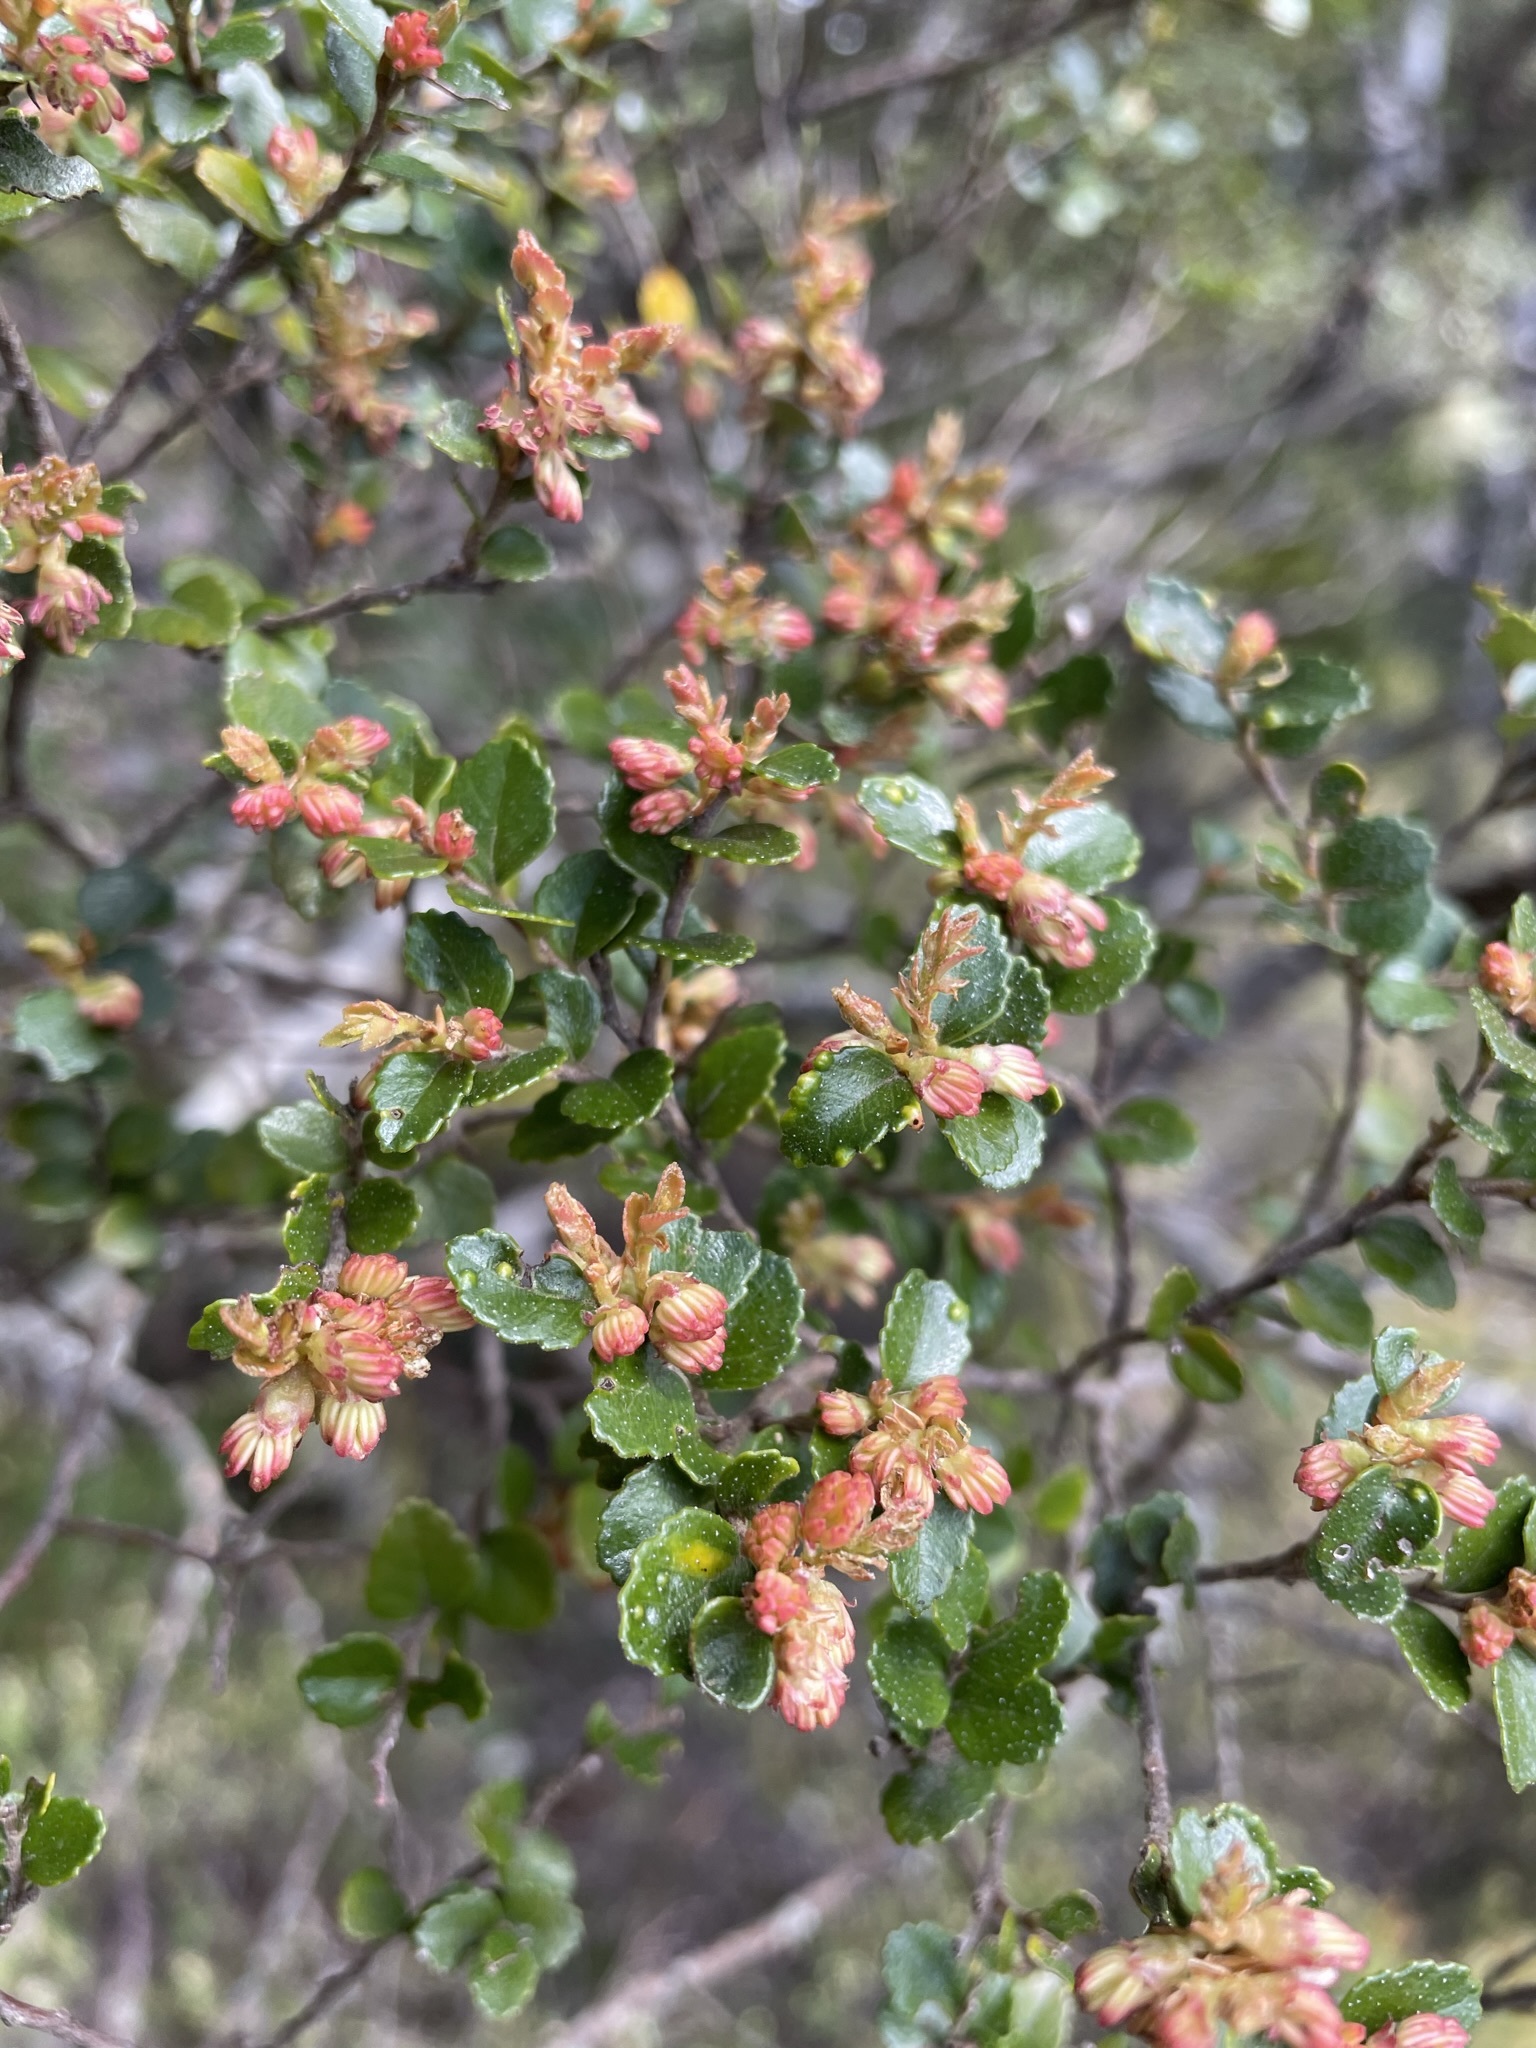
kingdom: Plantae
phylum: Tracheophyta
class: Magnoliopsida
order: Fagales
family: Nothofagaceae
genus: Nothofagus
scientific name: Nothofagus cunninghamii
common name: Myrtle beech
